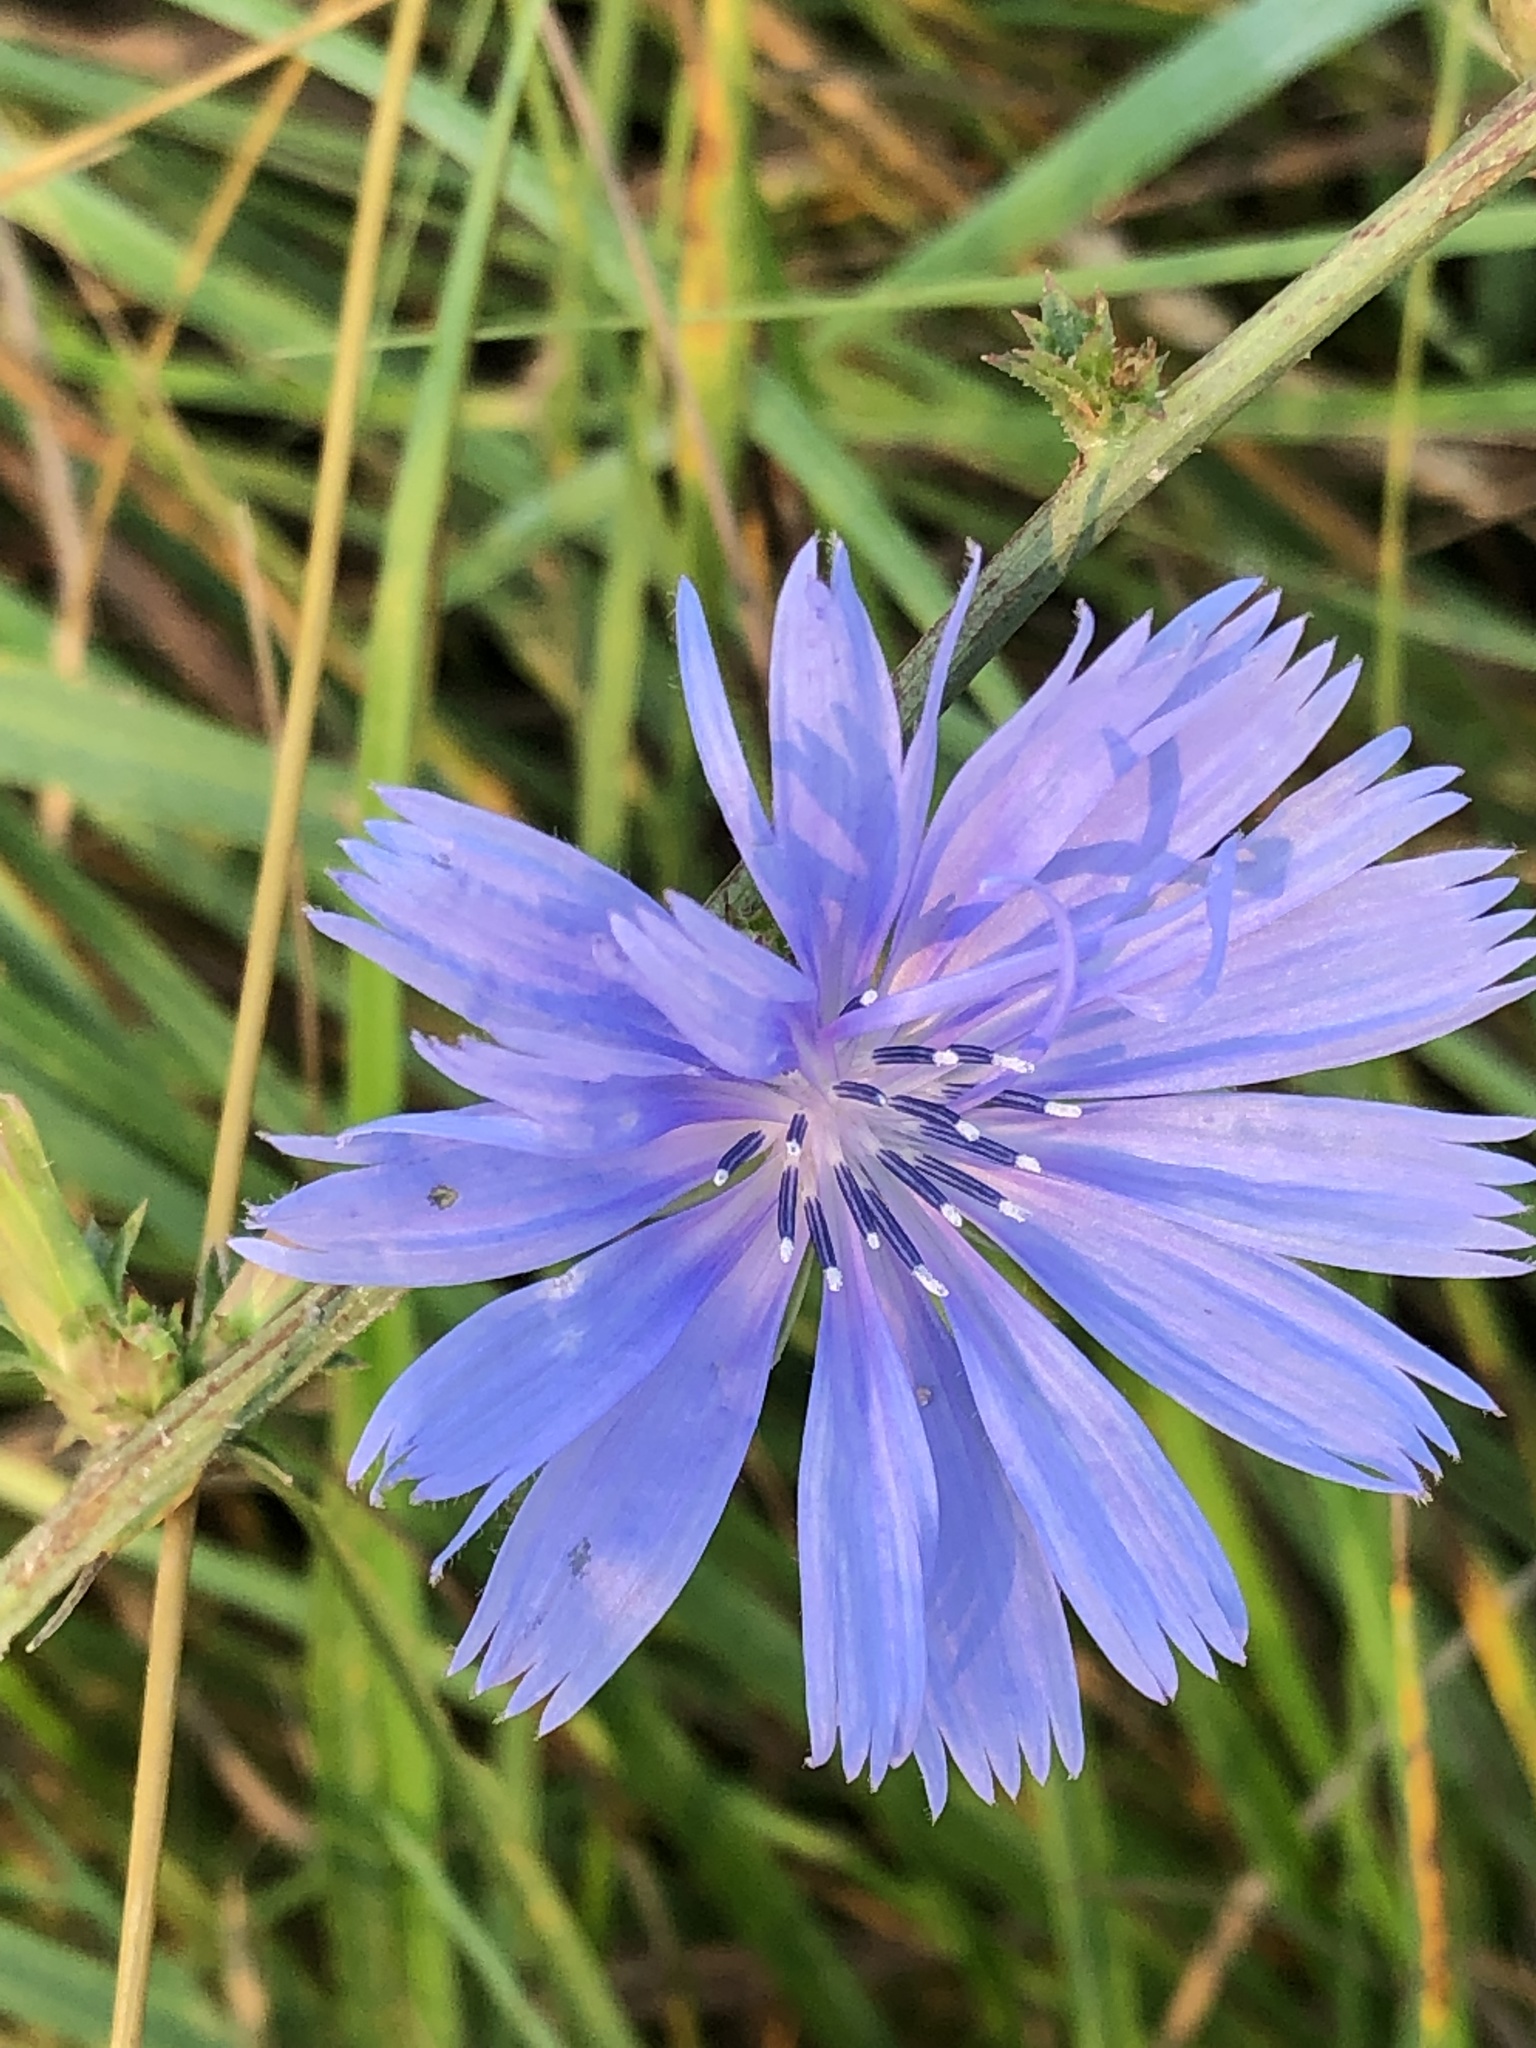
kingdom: Plantae
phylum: Tracheophyta
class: Magnoliopsida
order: Asterales
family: Asteraceae
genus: Cichorium
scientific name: Cichorium intybus
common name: Chicory
